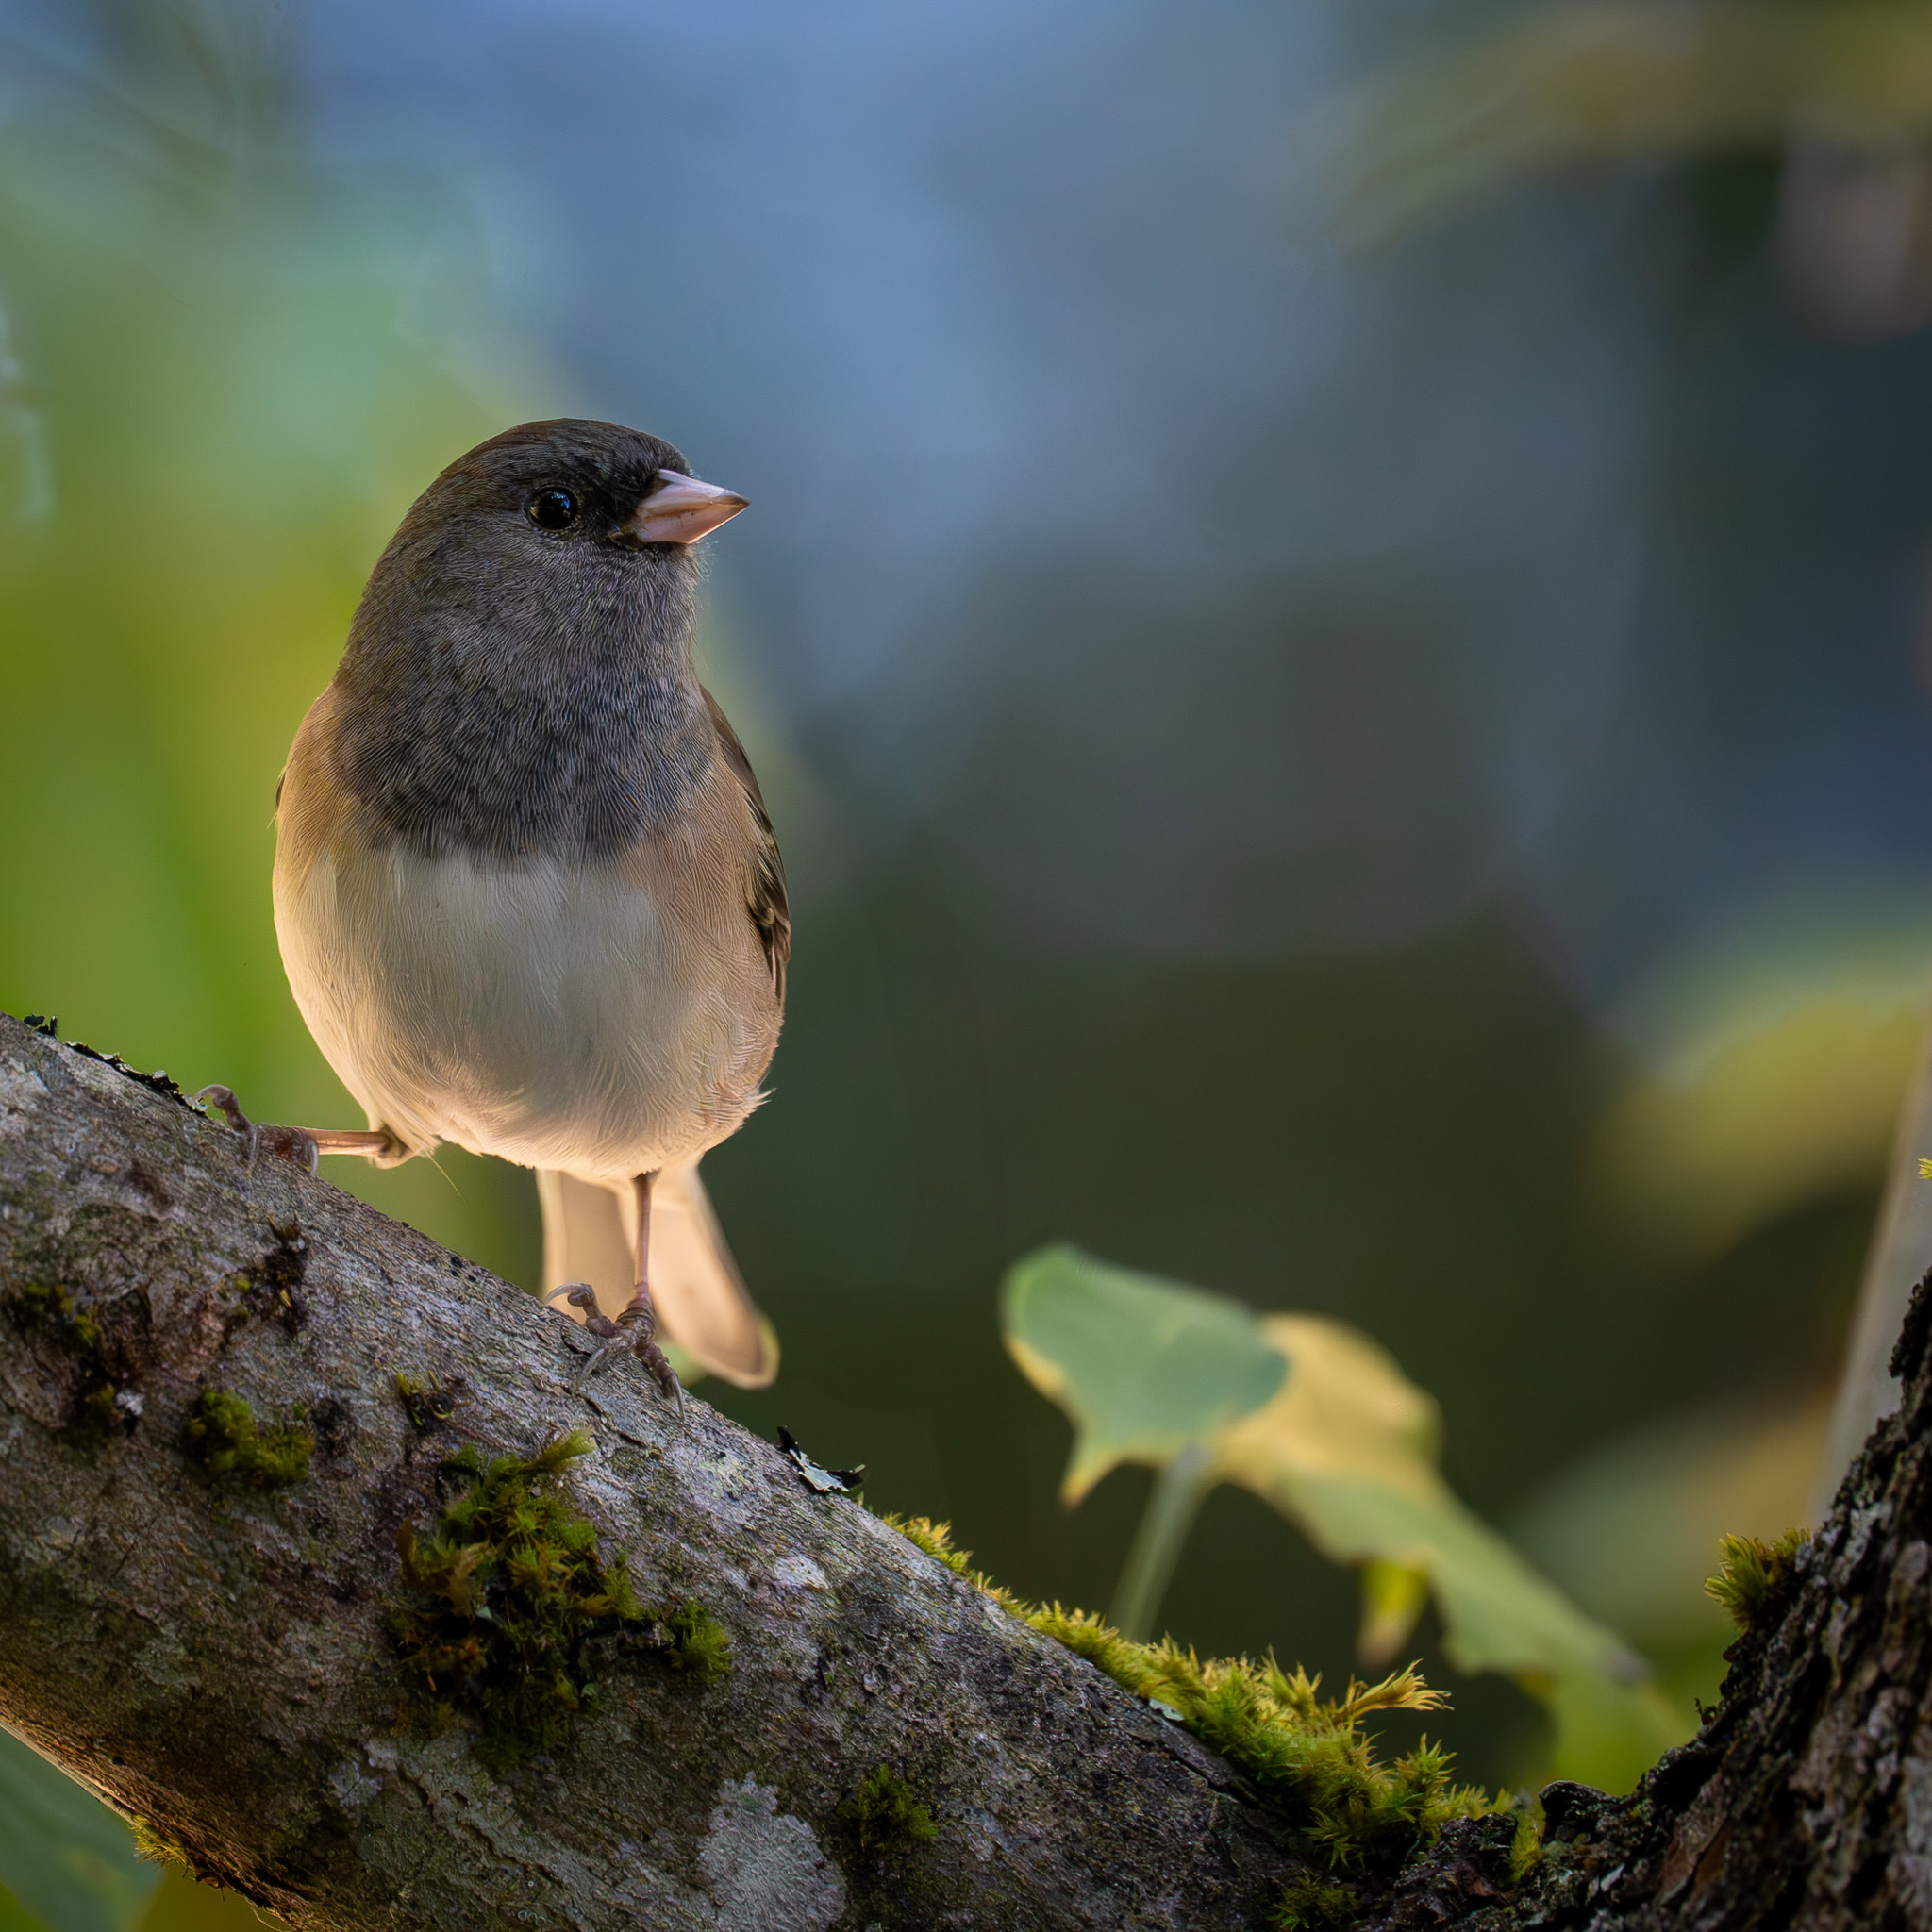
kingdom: Animalia
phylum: Chordata
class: Aves
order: Passeriformes
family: Passerellidae
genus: Junco
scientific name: Junco hyemalis
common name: Dark-eyed junco
